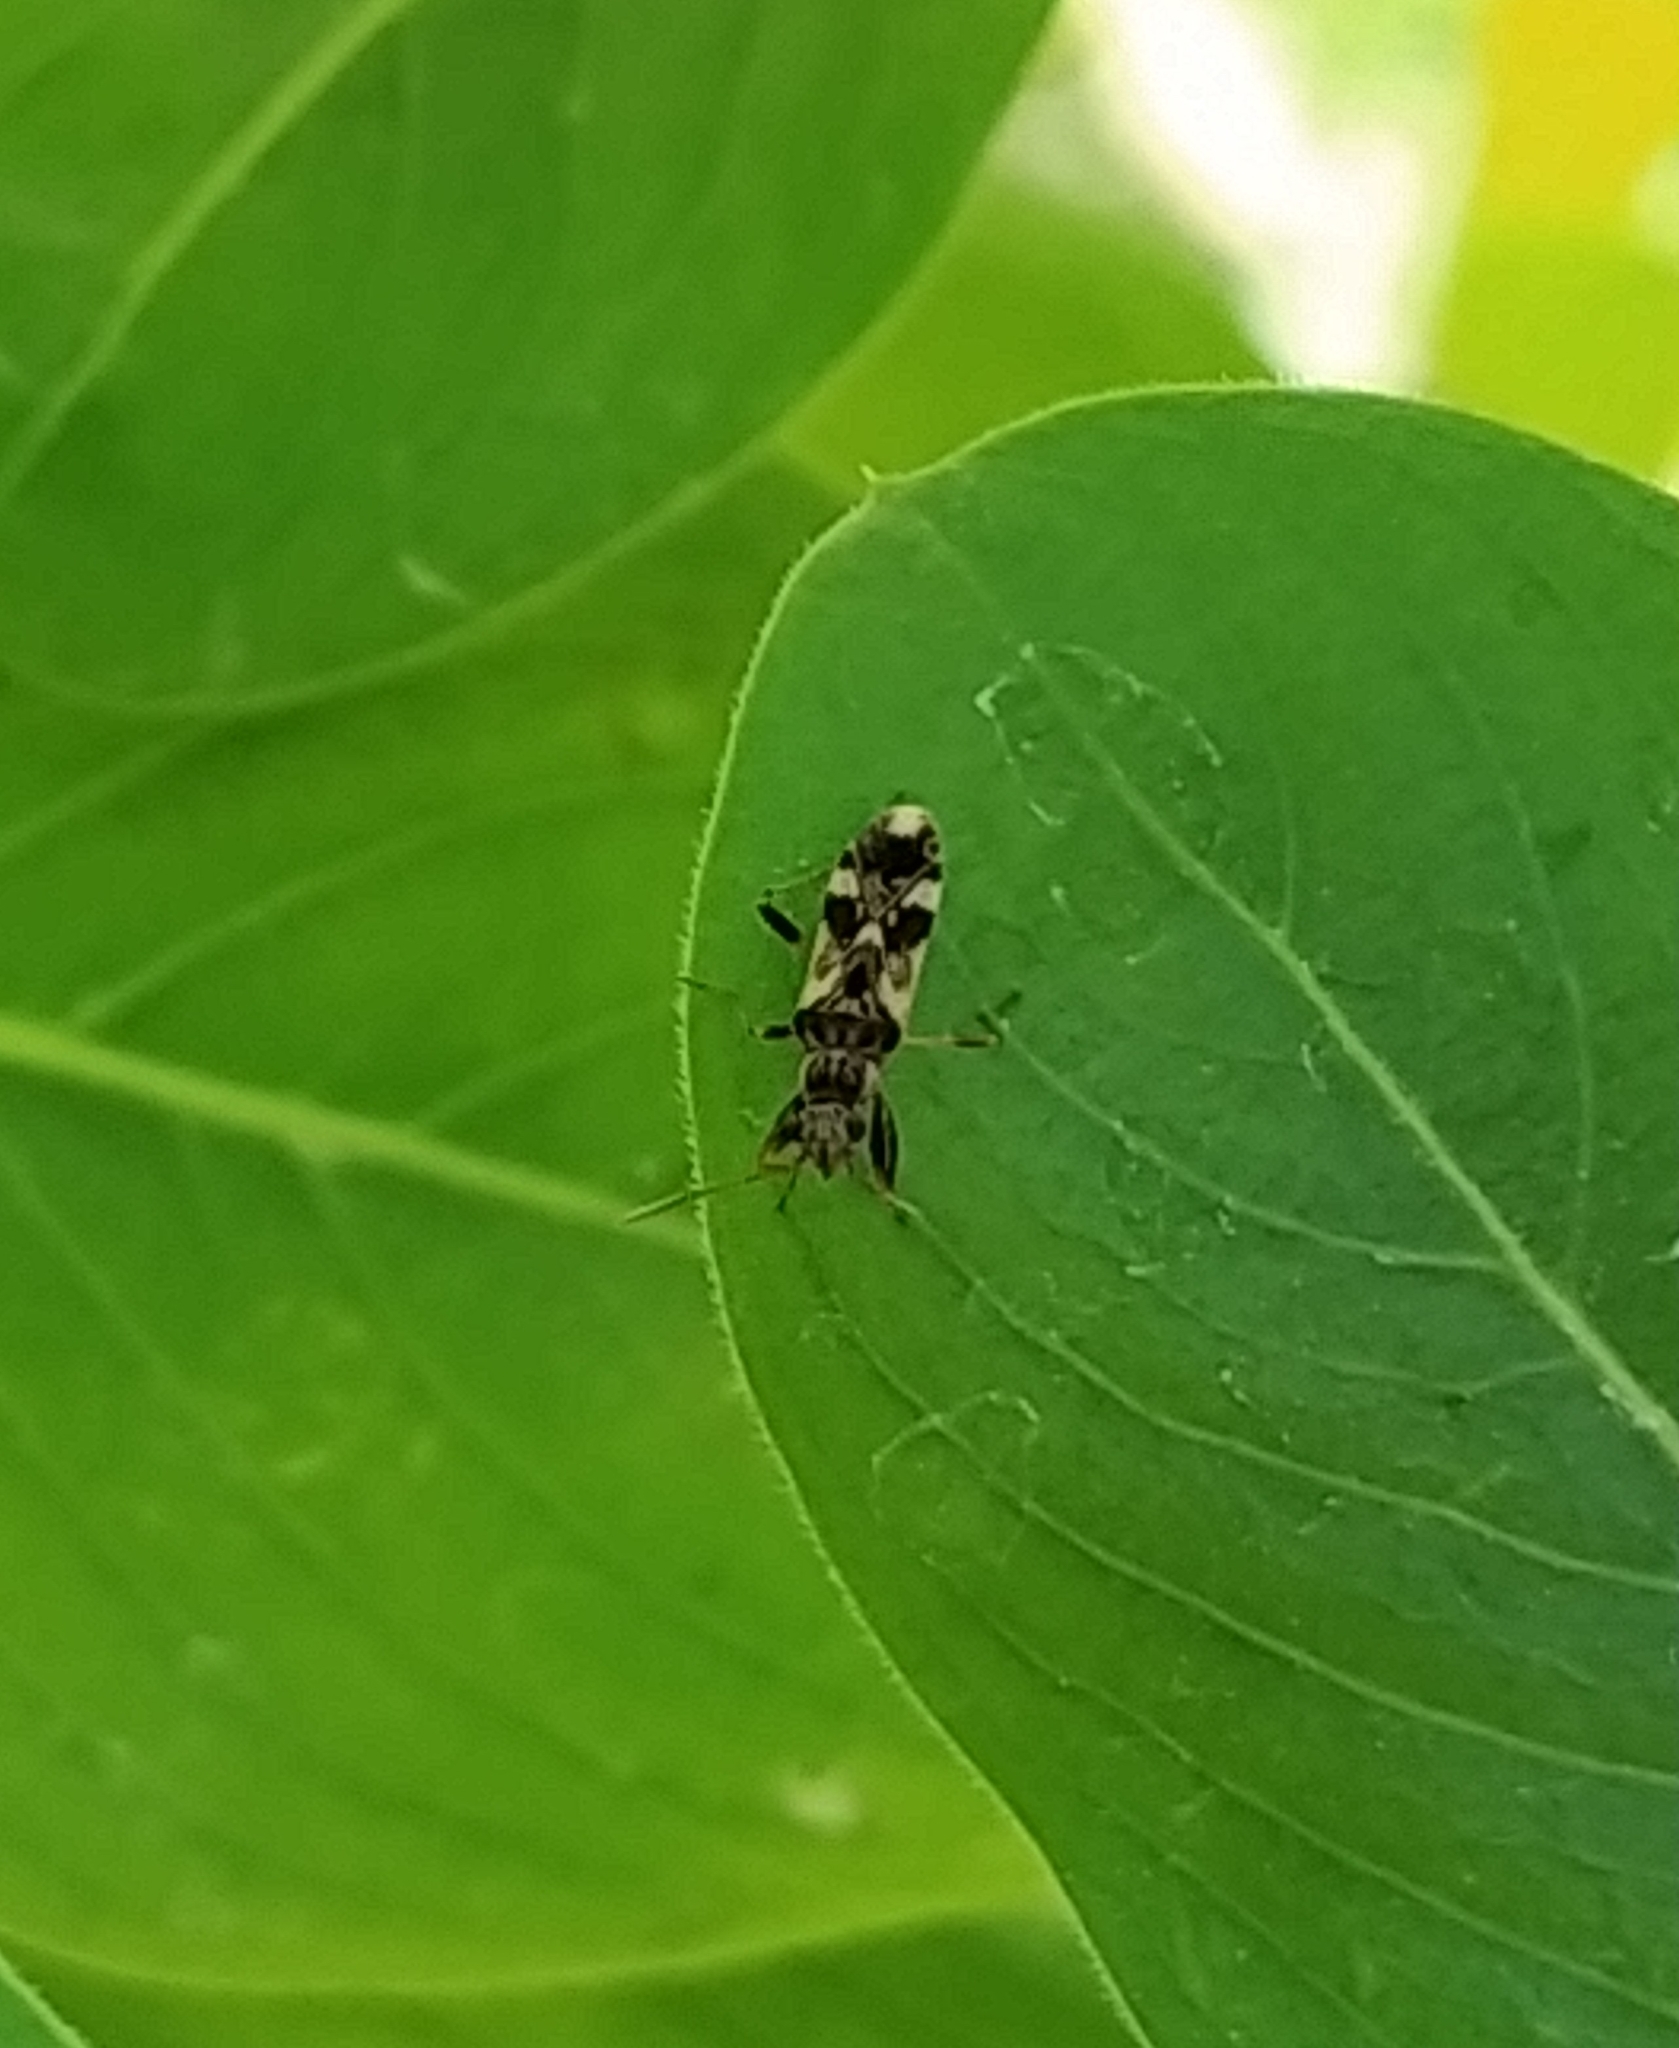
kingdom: Animalia
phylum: Arthropoda
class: Insecta
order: Hemiptera
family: Rhyparochromidae
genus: Neopamera
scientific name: Neopamera bilobata
